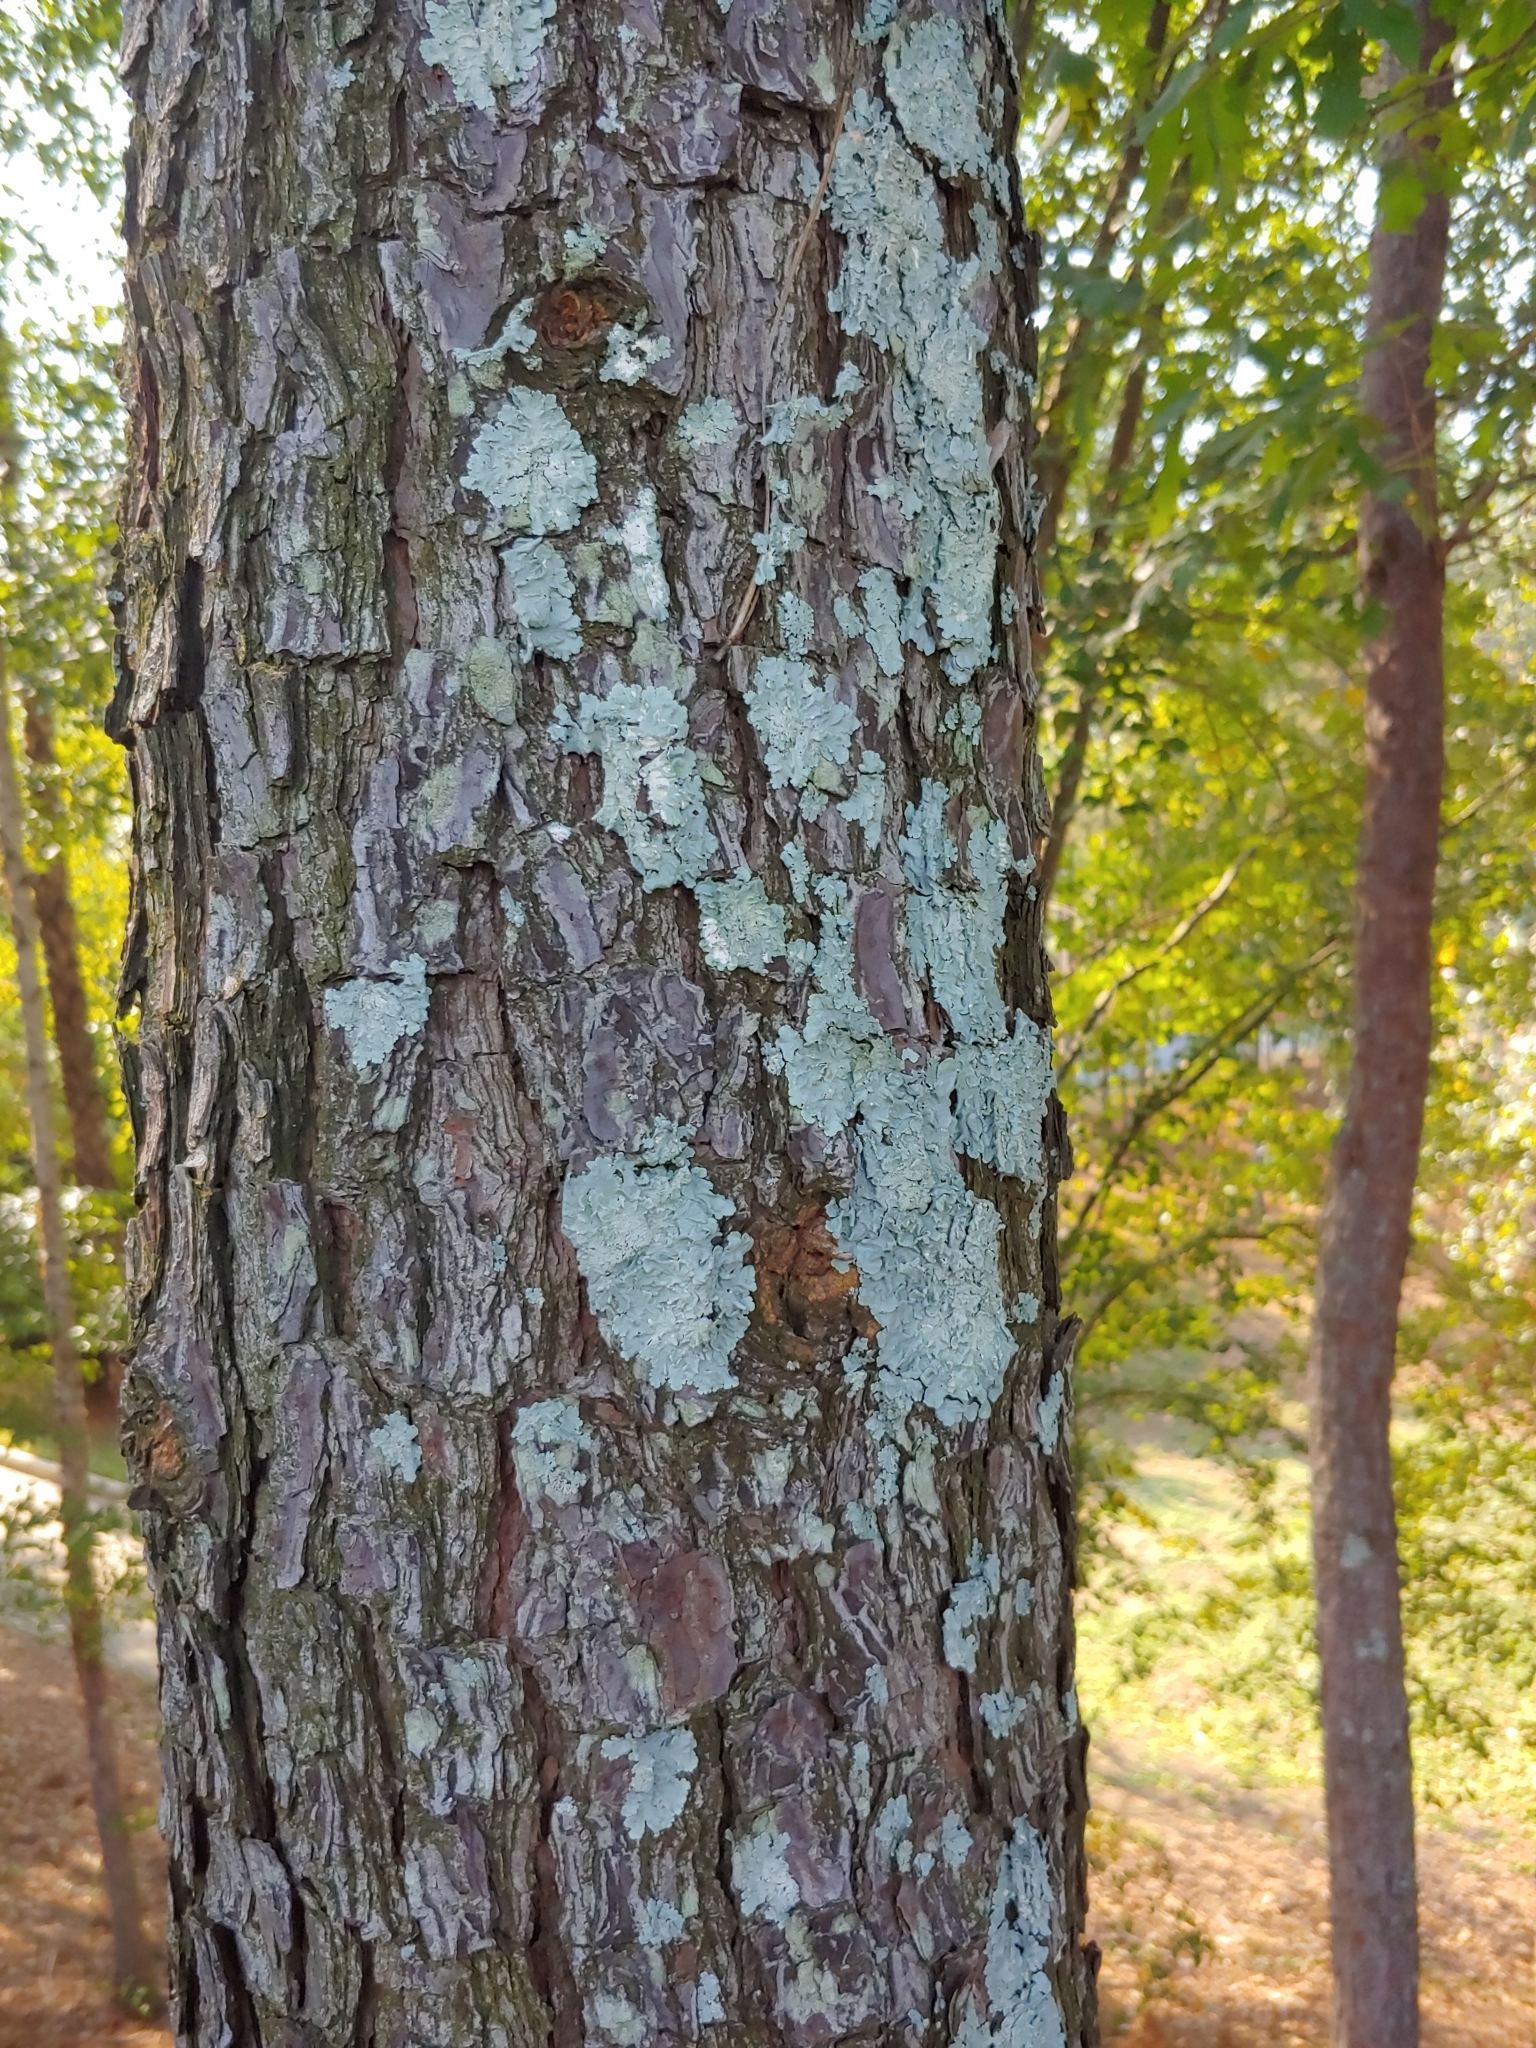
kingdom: Fungi
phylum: Ascomycota
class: Lecanoromycetes
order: Lecanorales
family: Parmeliaceae
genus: Flavoparmelia
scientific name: Flavoparmelia caperata
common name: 40-mile per hour lichen
